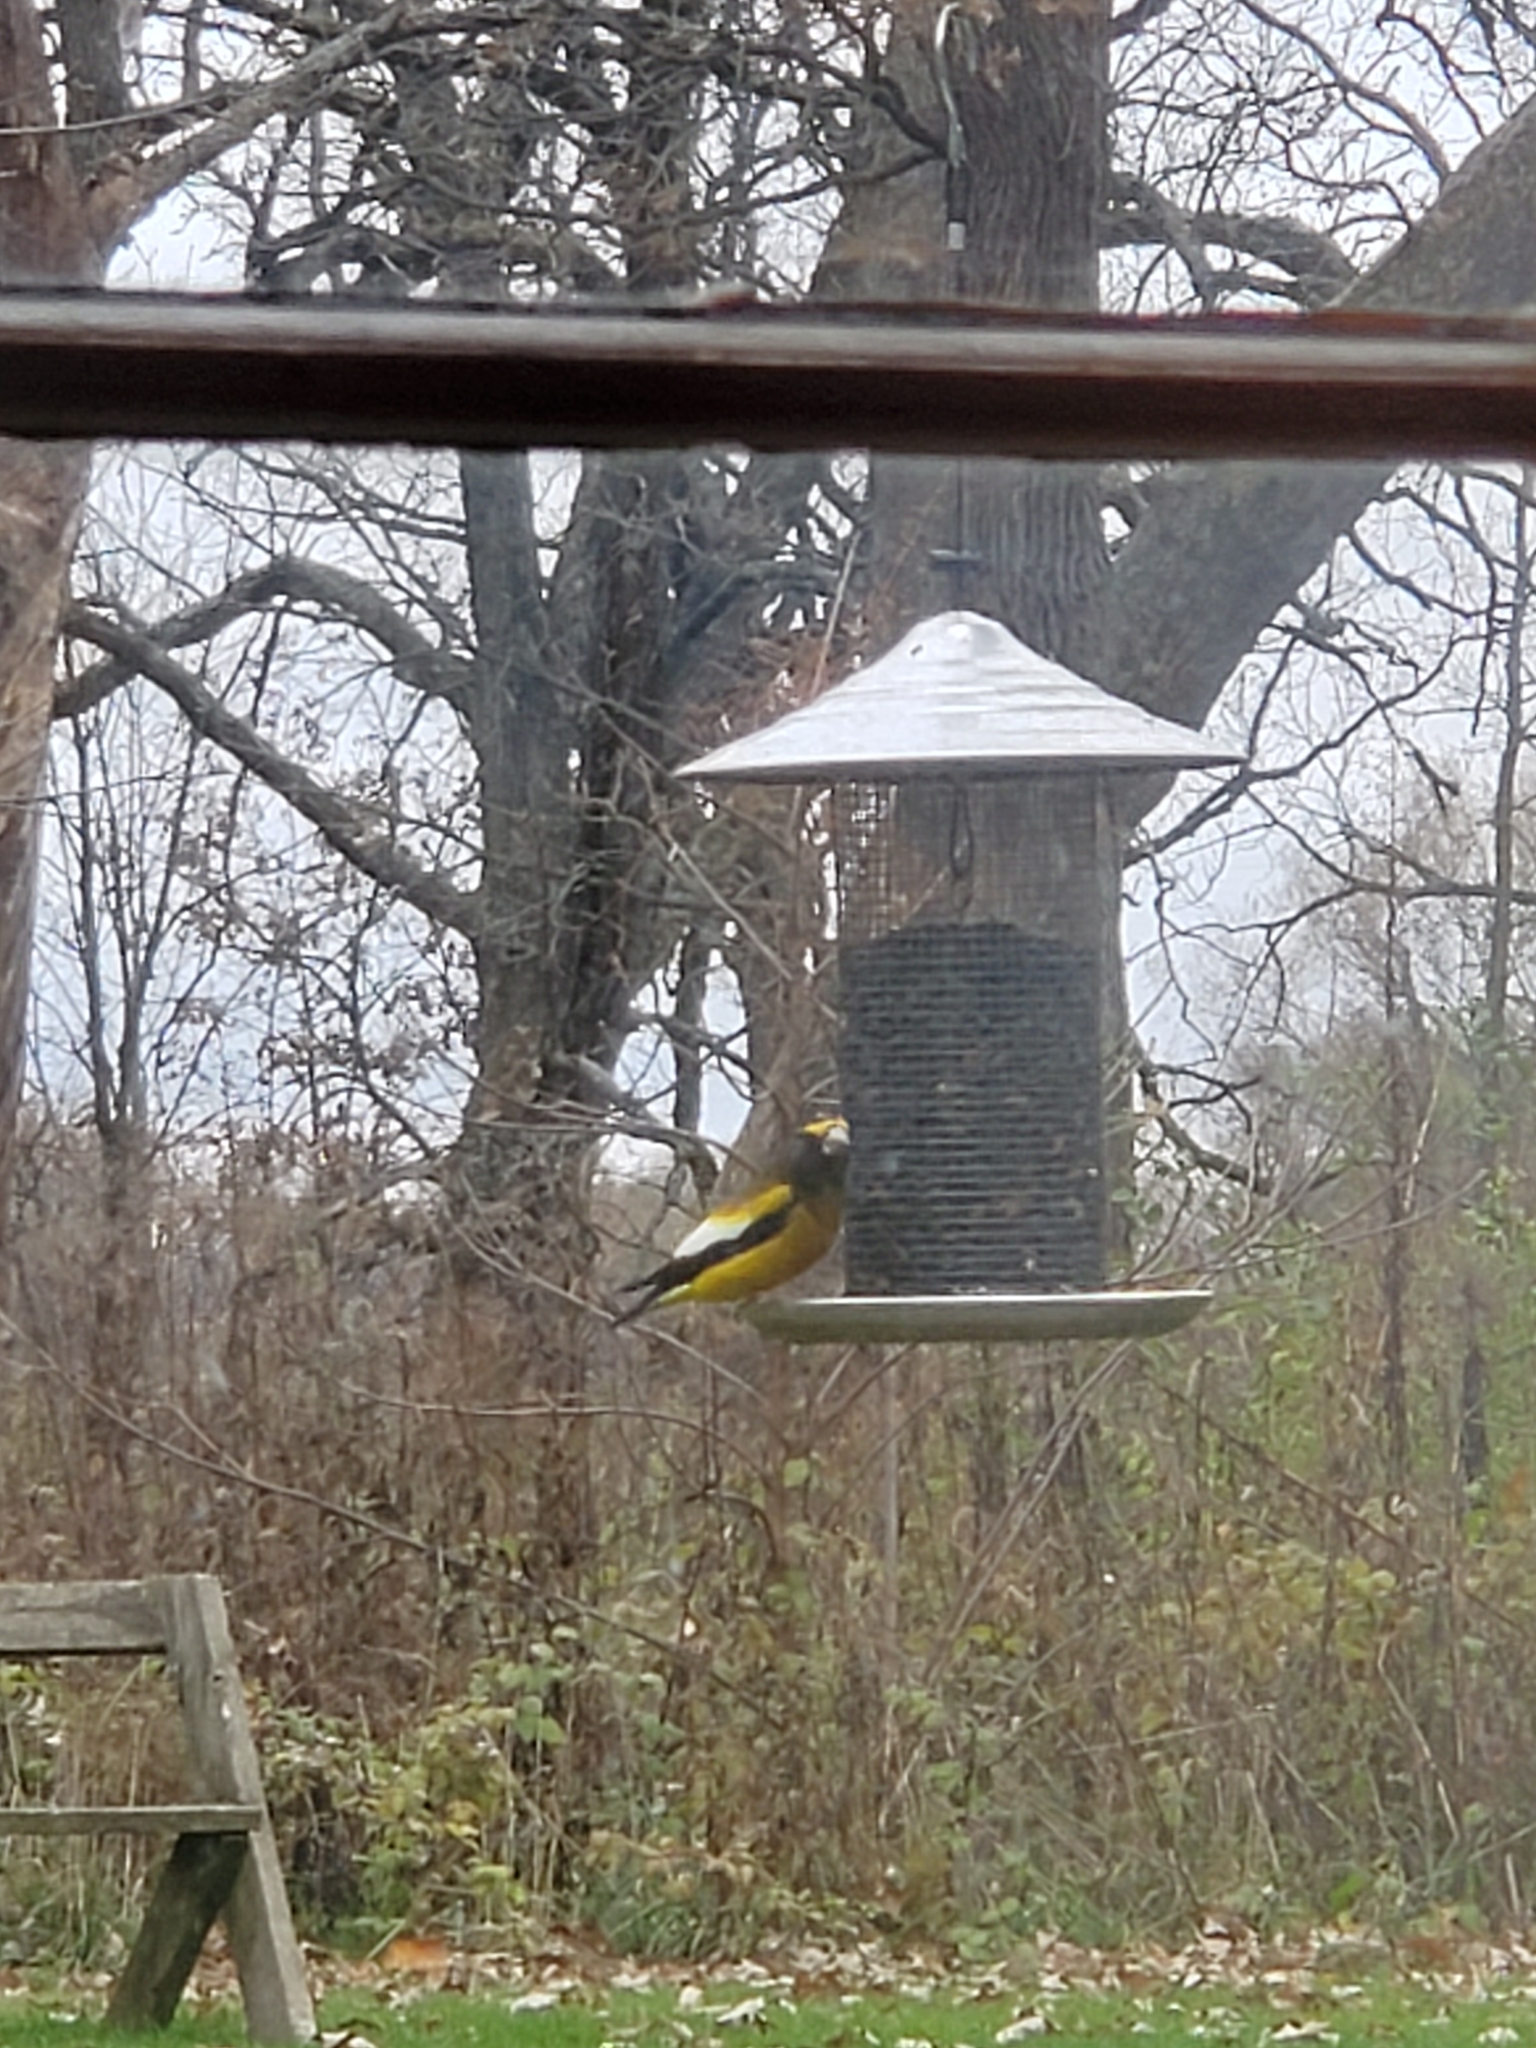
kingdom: Animalia
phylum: Chordata
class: Aves
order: Passeriformes
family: Fringillidae
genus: Hesperiphona
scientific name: Hesperiphona vespertina
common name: Evening grosbeak
